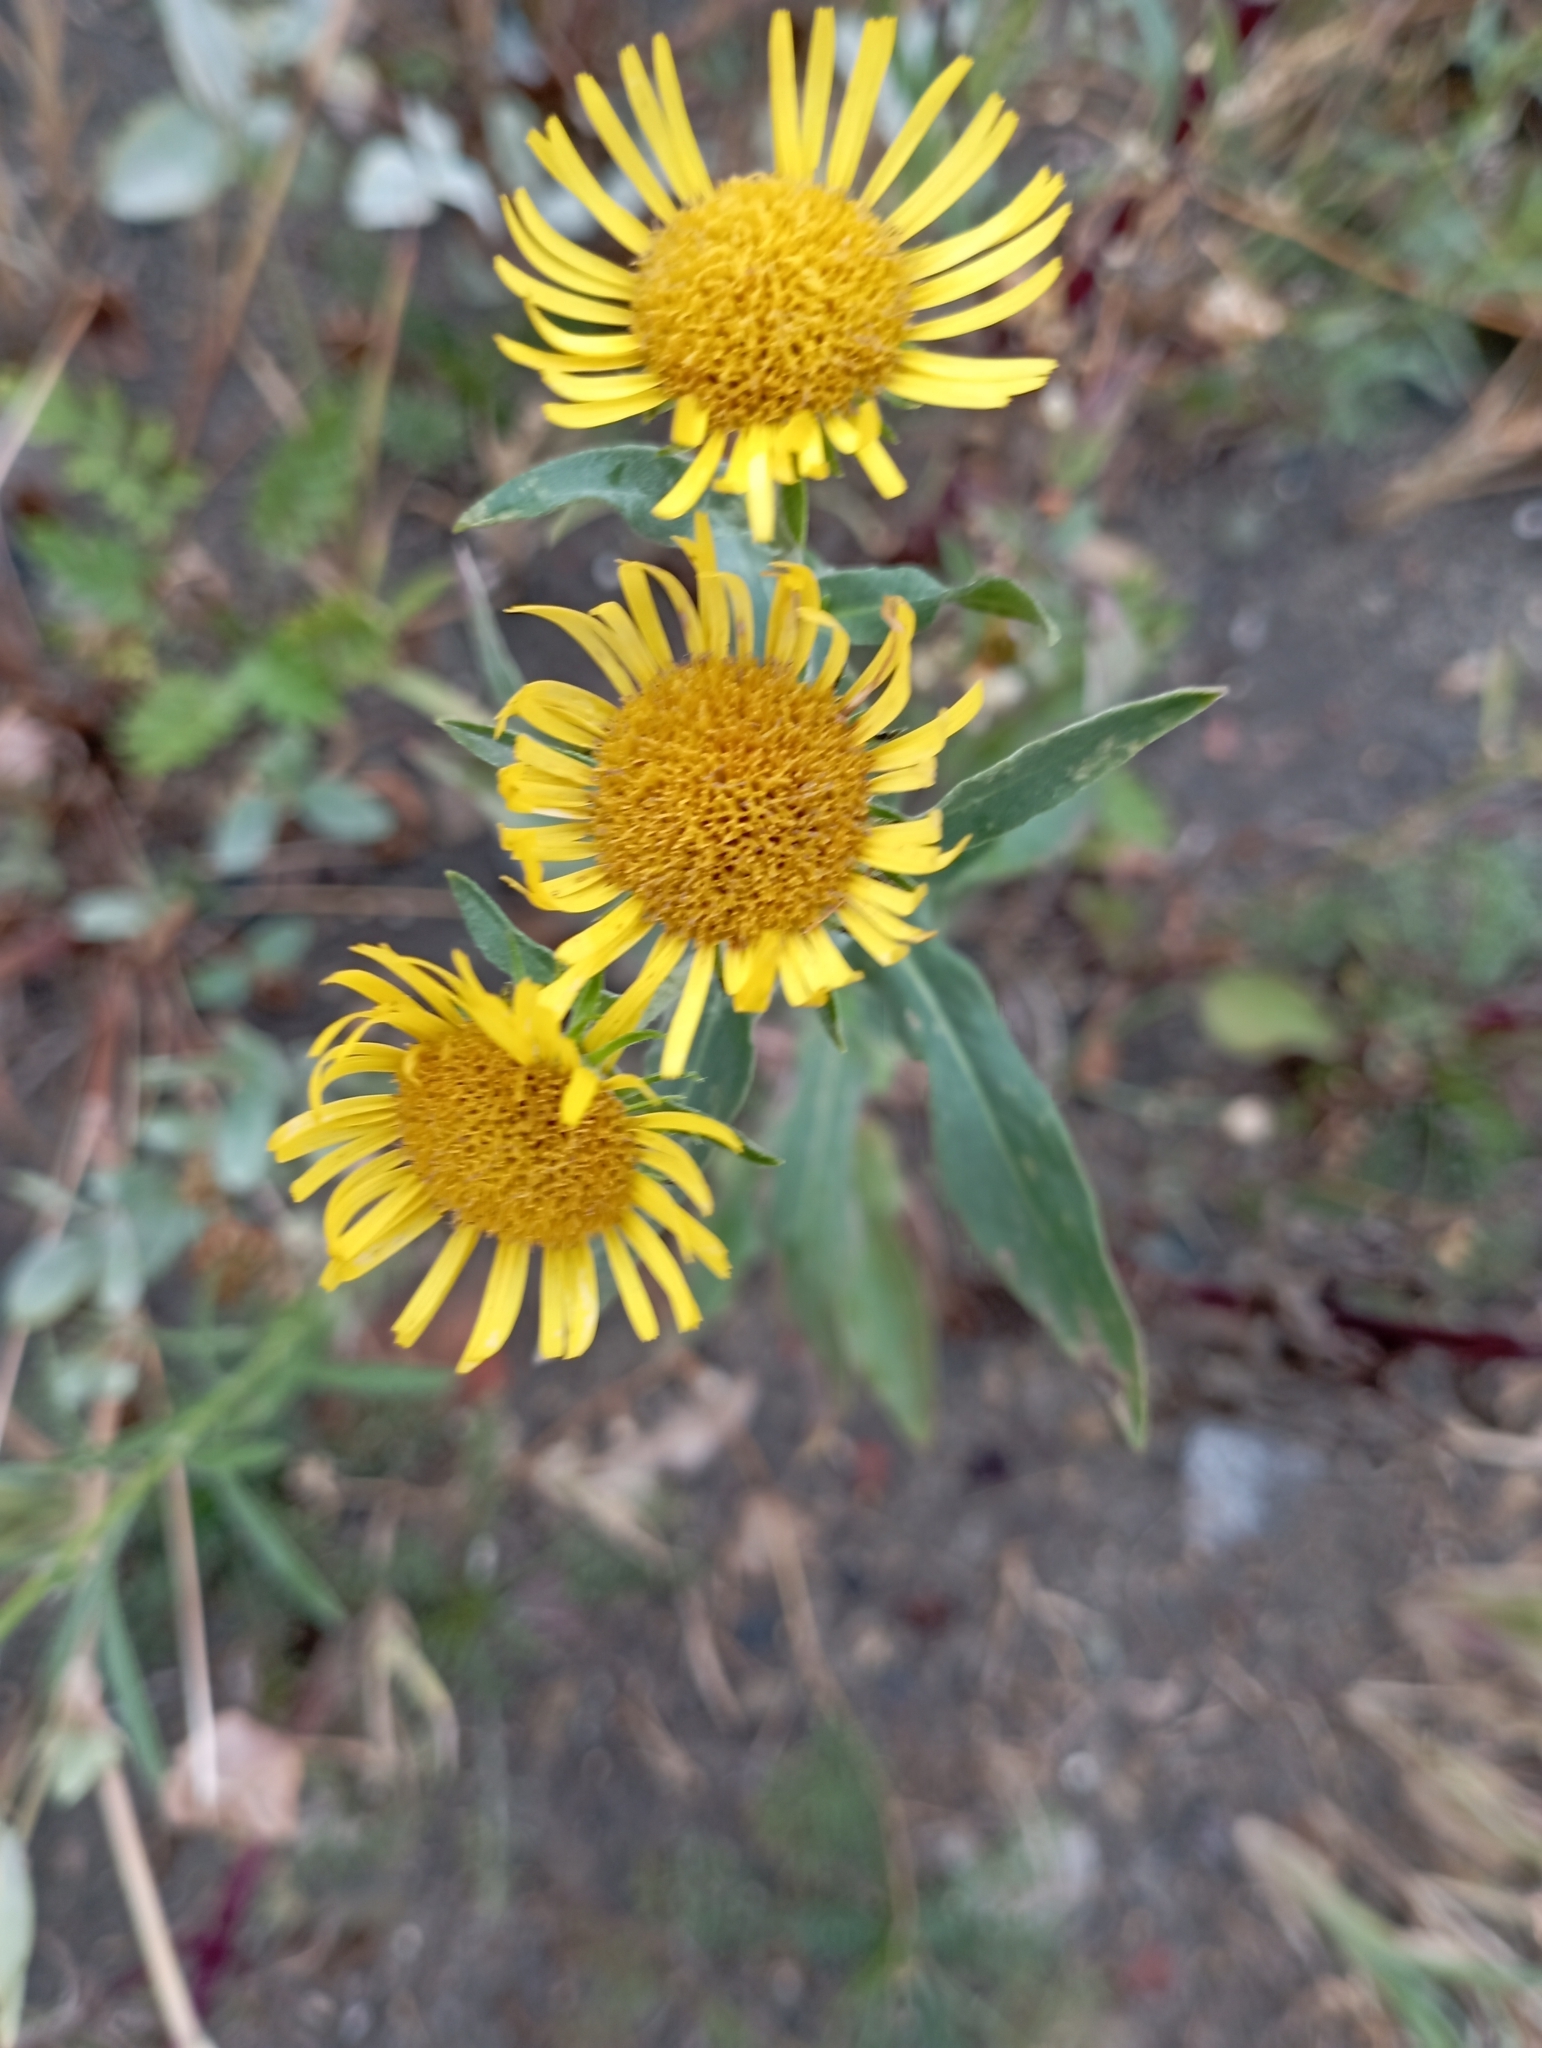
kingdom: Plantae
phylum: Tracheophyta
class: Magnoliopsida
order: Asterales
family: Asteraceae
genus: Pentanema
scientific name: Pentanema britannicum
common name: British elecampane
